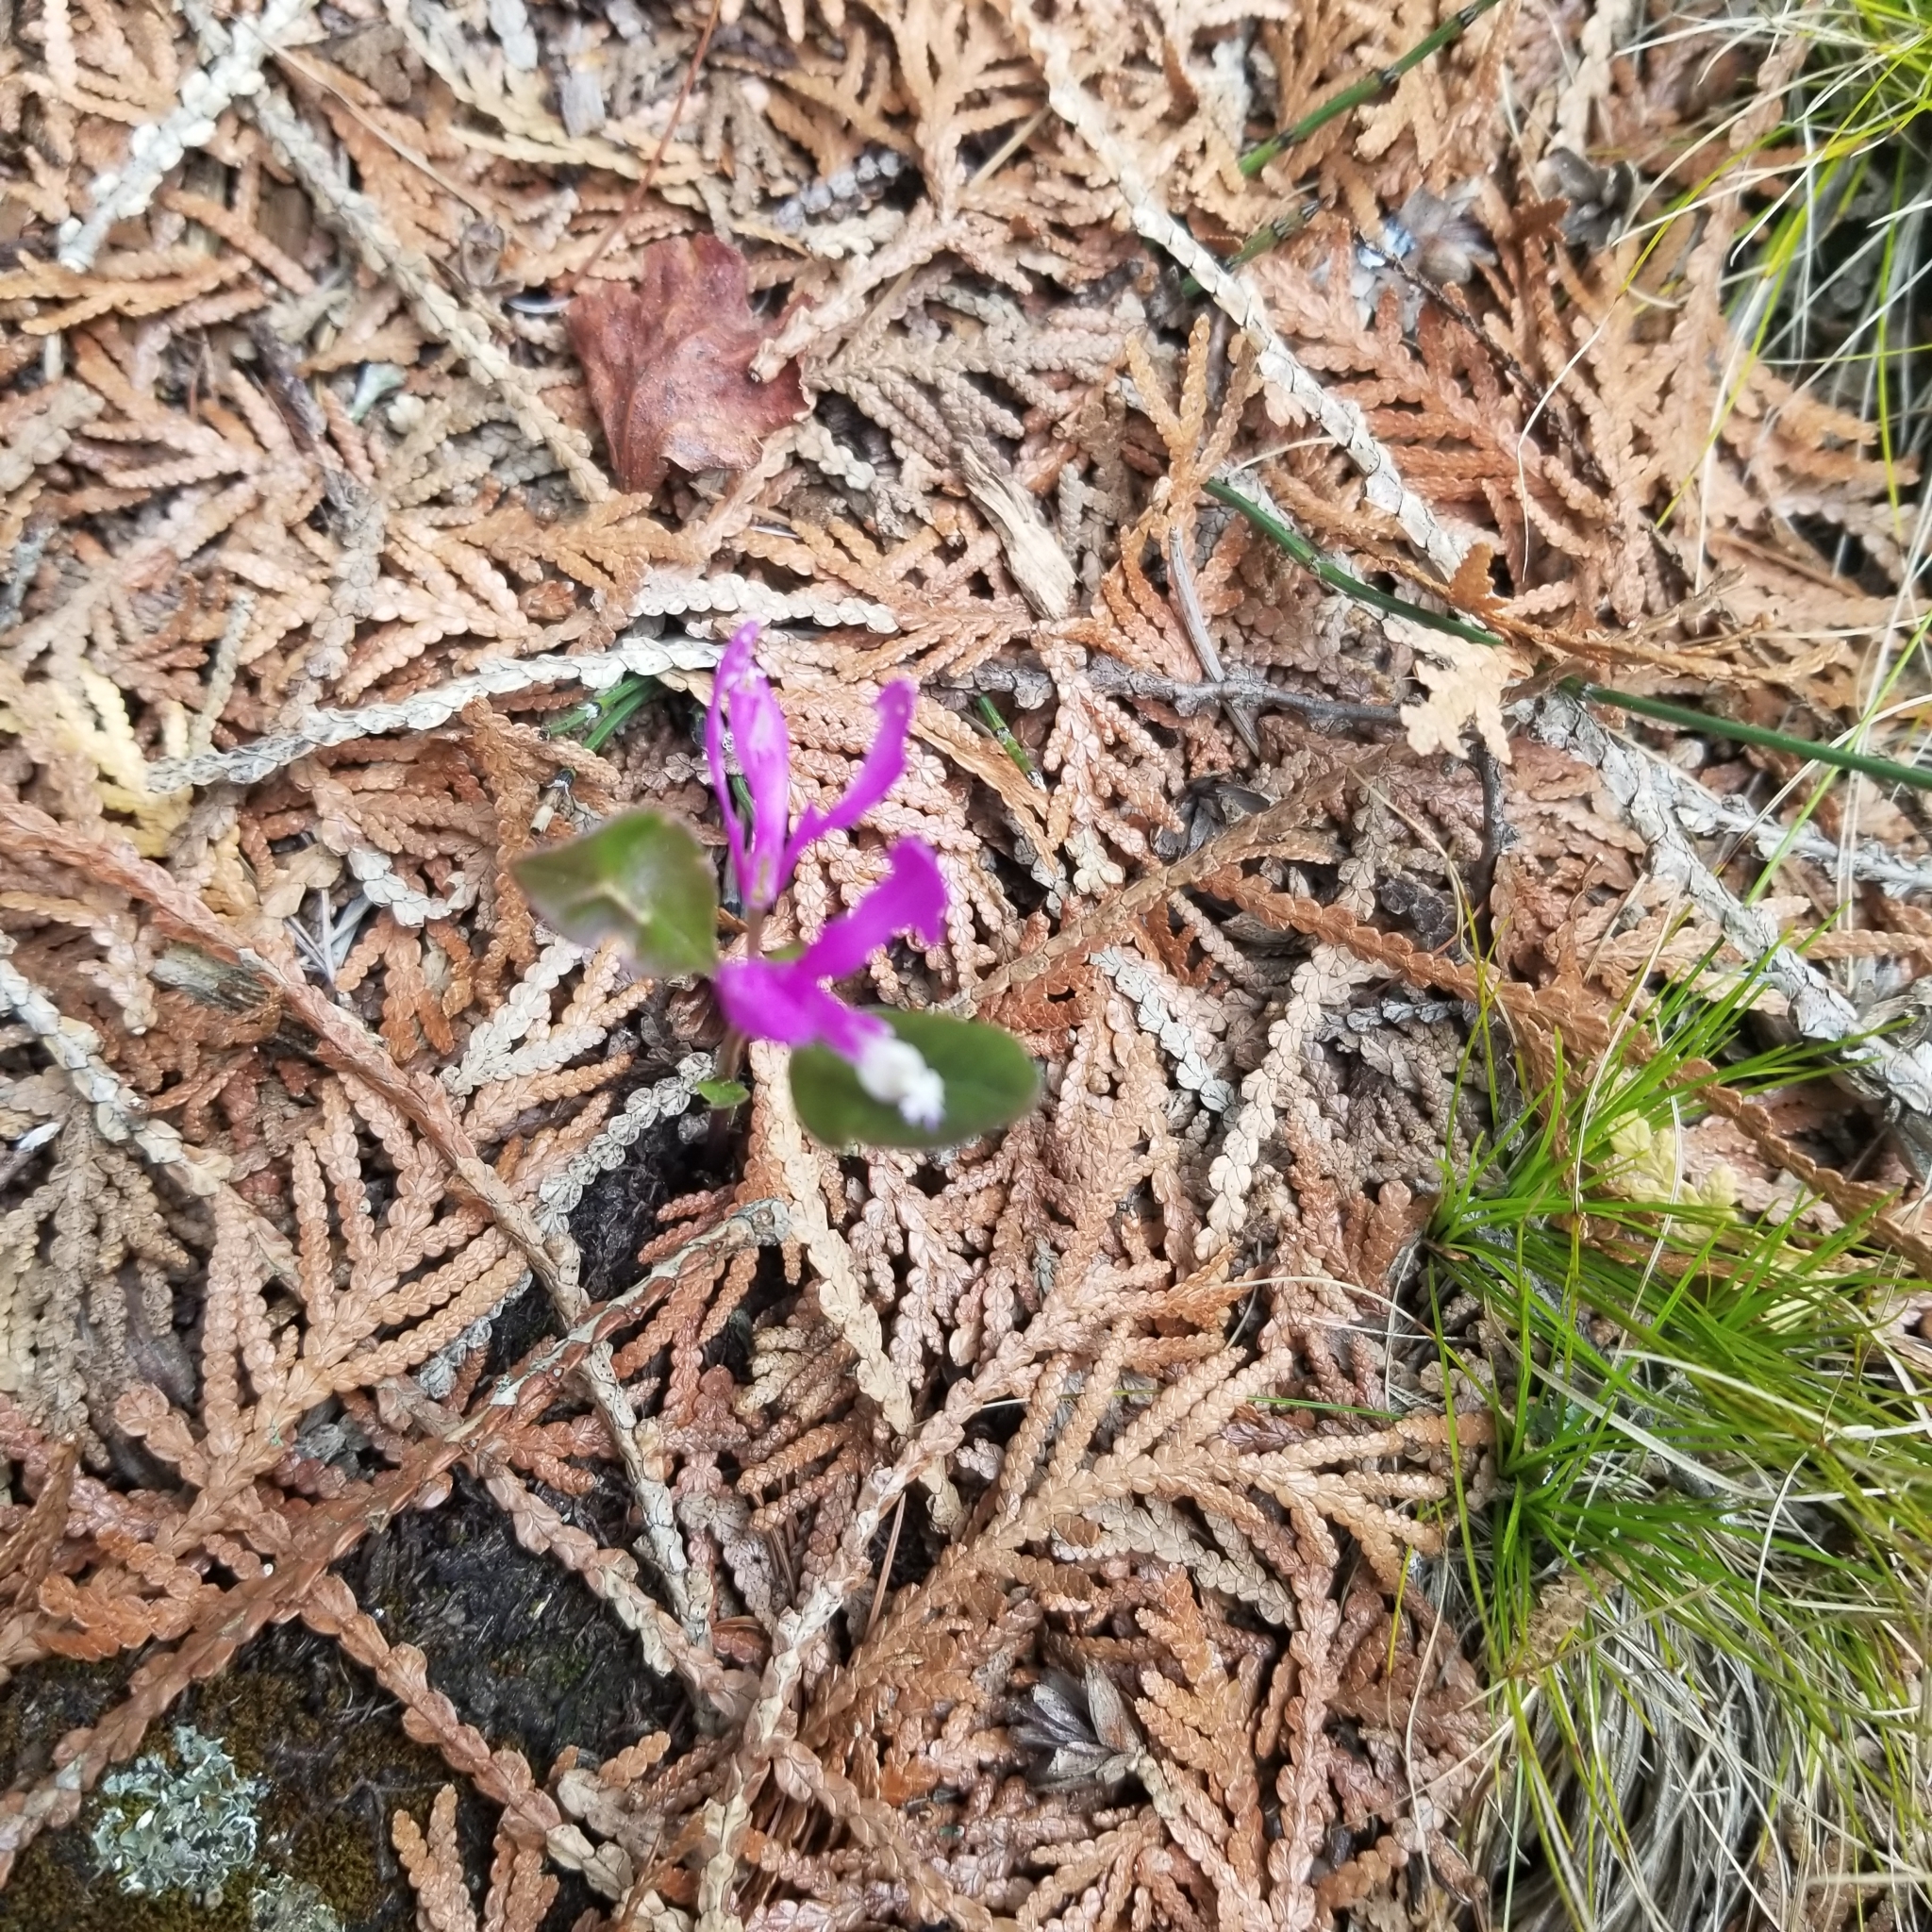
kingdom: Plantae
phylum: Tracheophyta
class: Magnoliopsida
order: Fabales
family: Polygalaceae
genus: Polygaloides
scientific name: Polygaloides paucifolia
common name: Bird-on-the-wing
